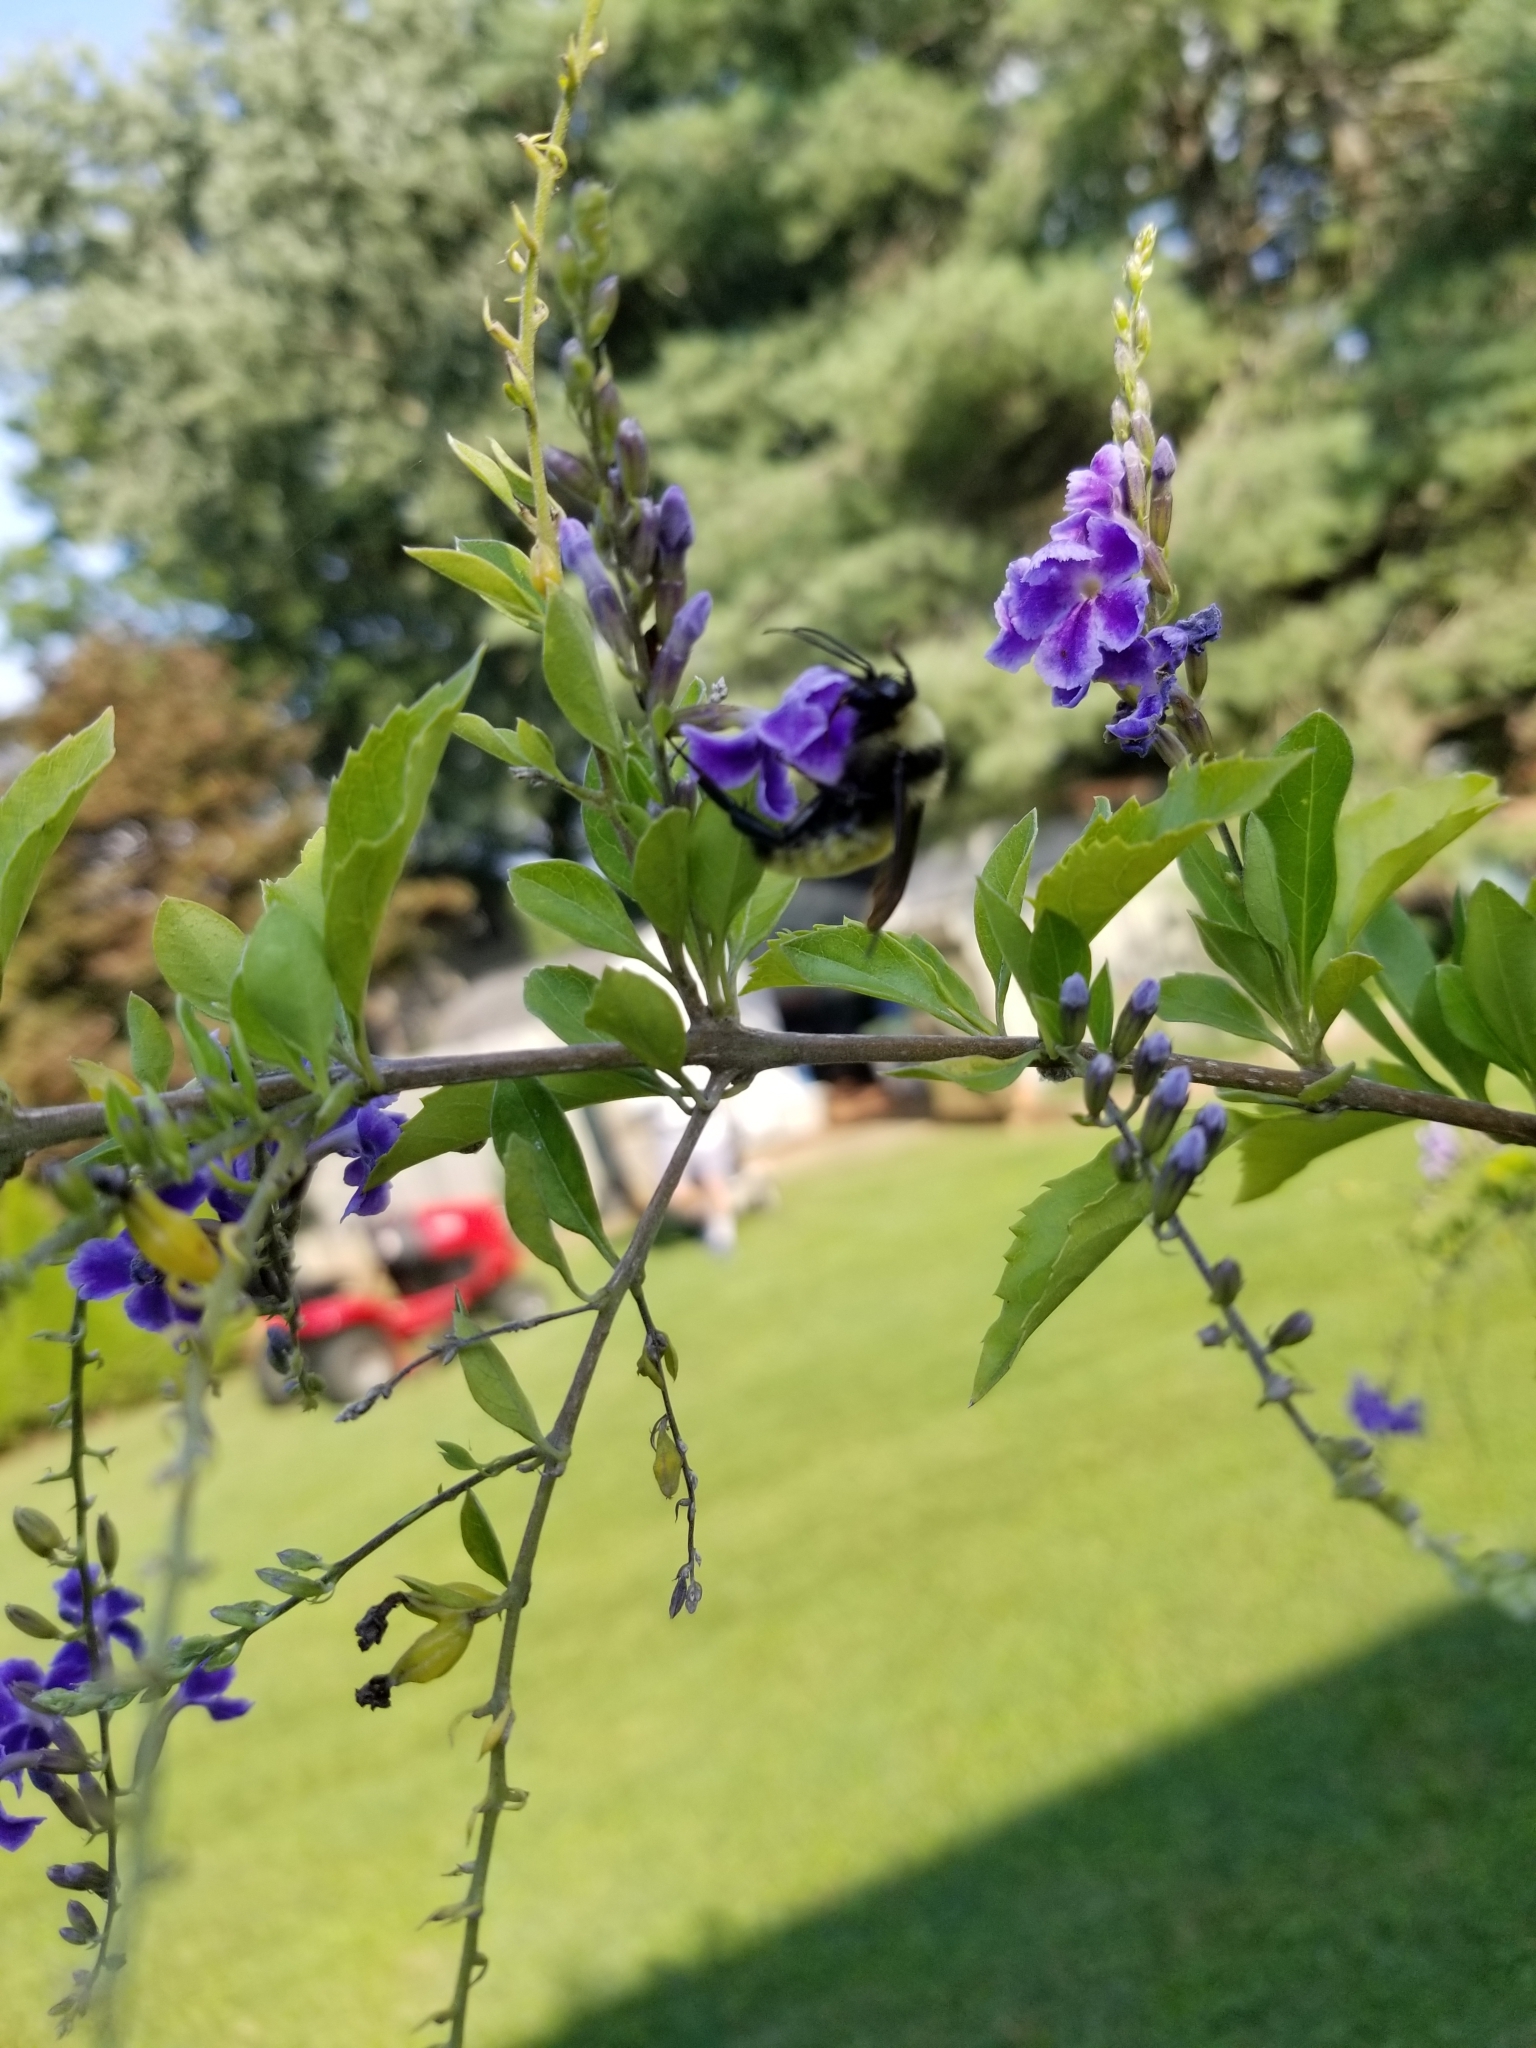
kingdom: Animalia
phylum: Arthropoda
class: Insecta
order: Hymenoptera
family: Apidae
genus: Bombus
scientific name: Bombus pensylvanicus
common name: Bumble bee
